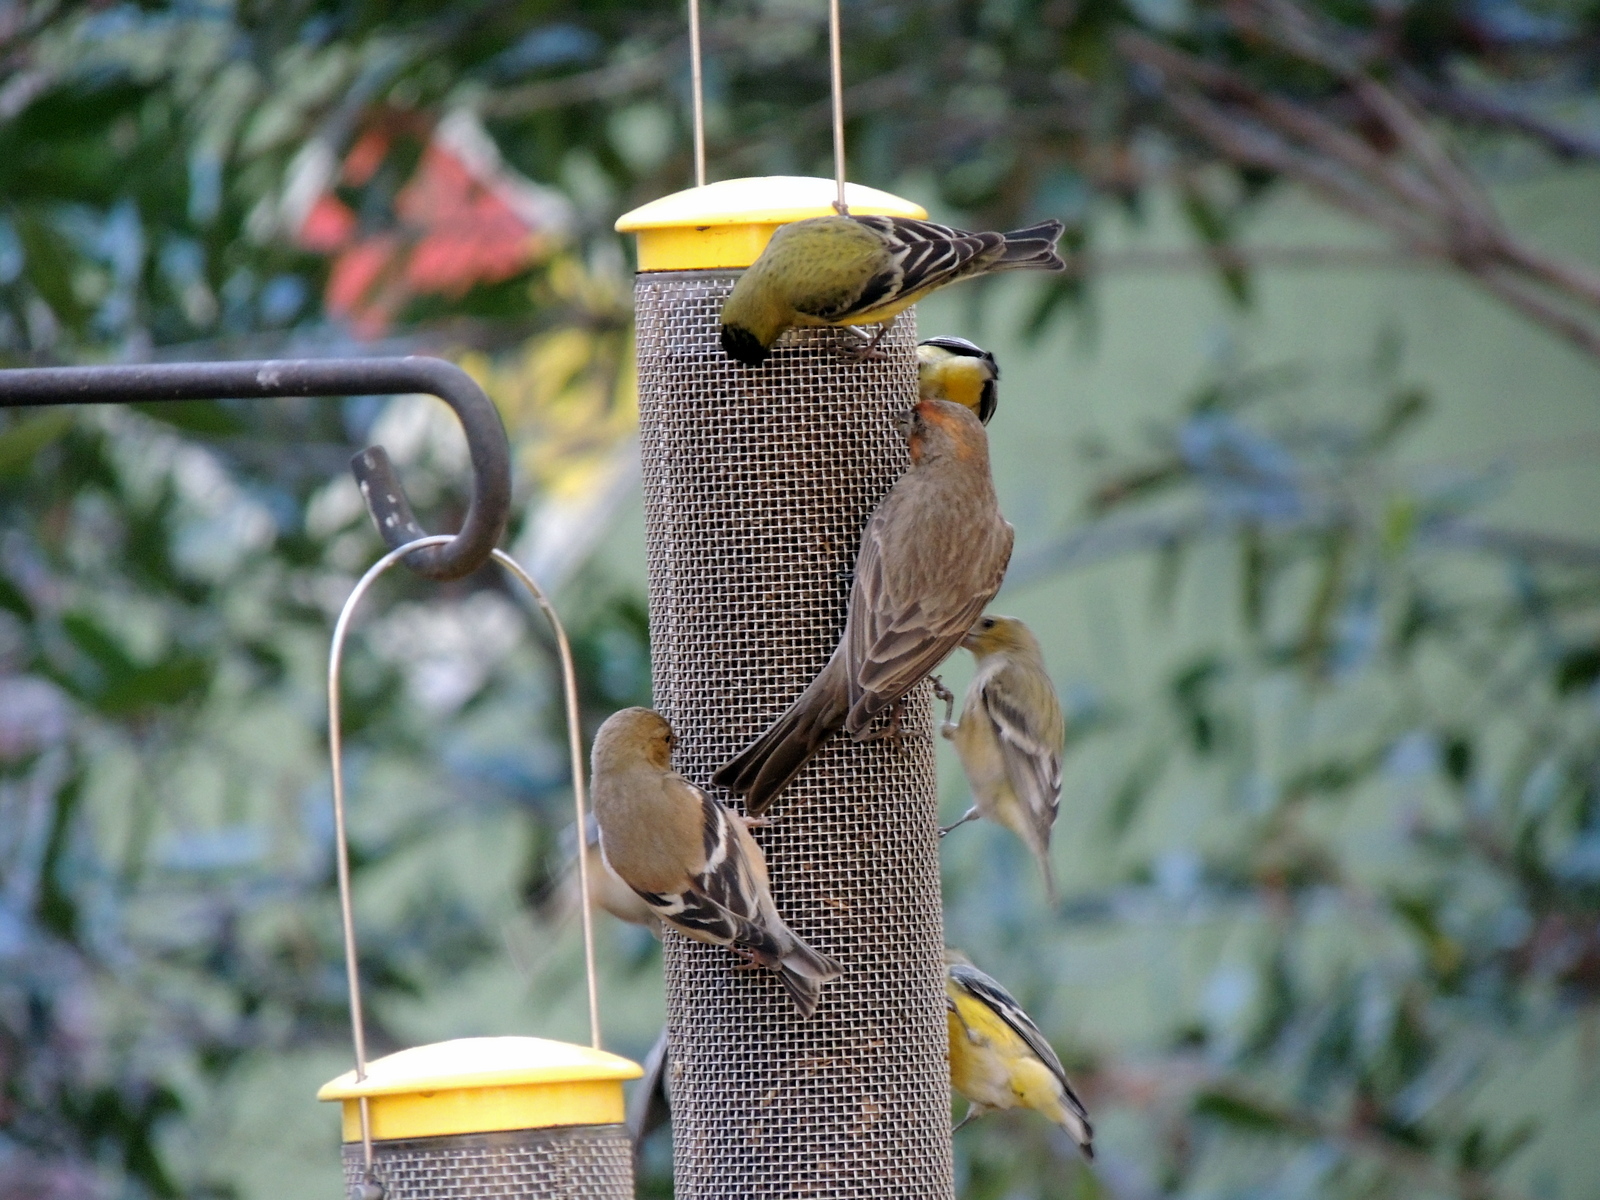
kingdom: Animalia
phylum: Chordata
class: Aves
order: Passeriformes
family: Fringillidae
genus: Haemorhous
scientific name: Haemorhous mexicanus
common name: House finch
